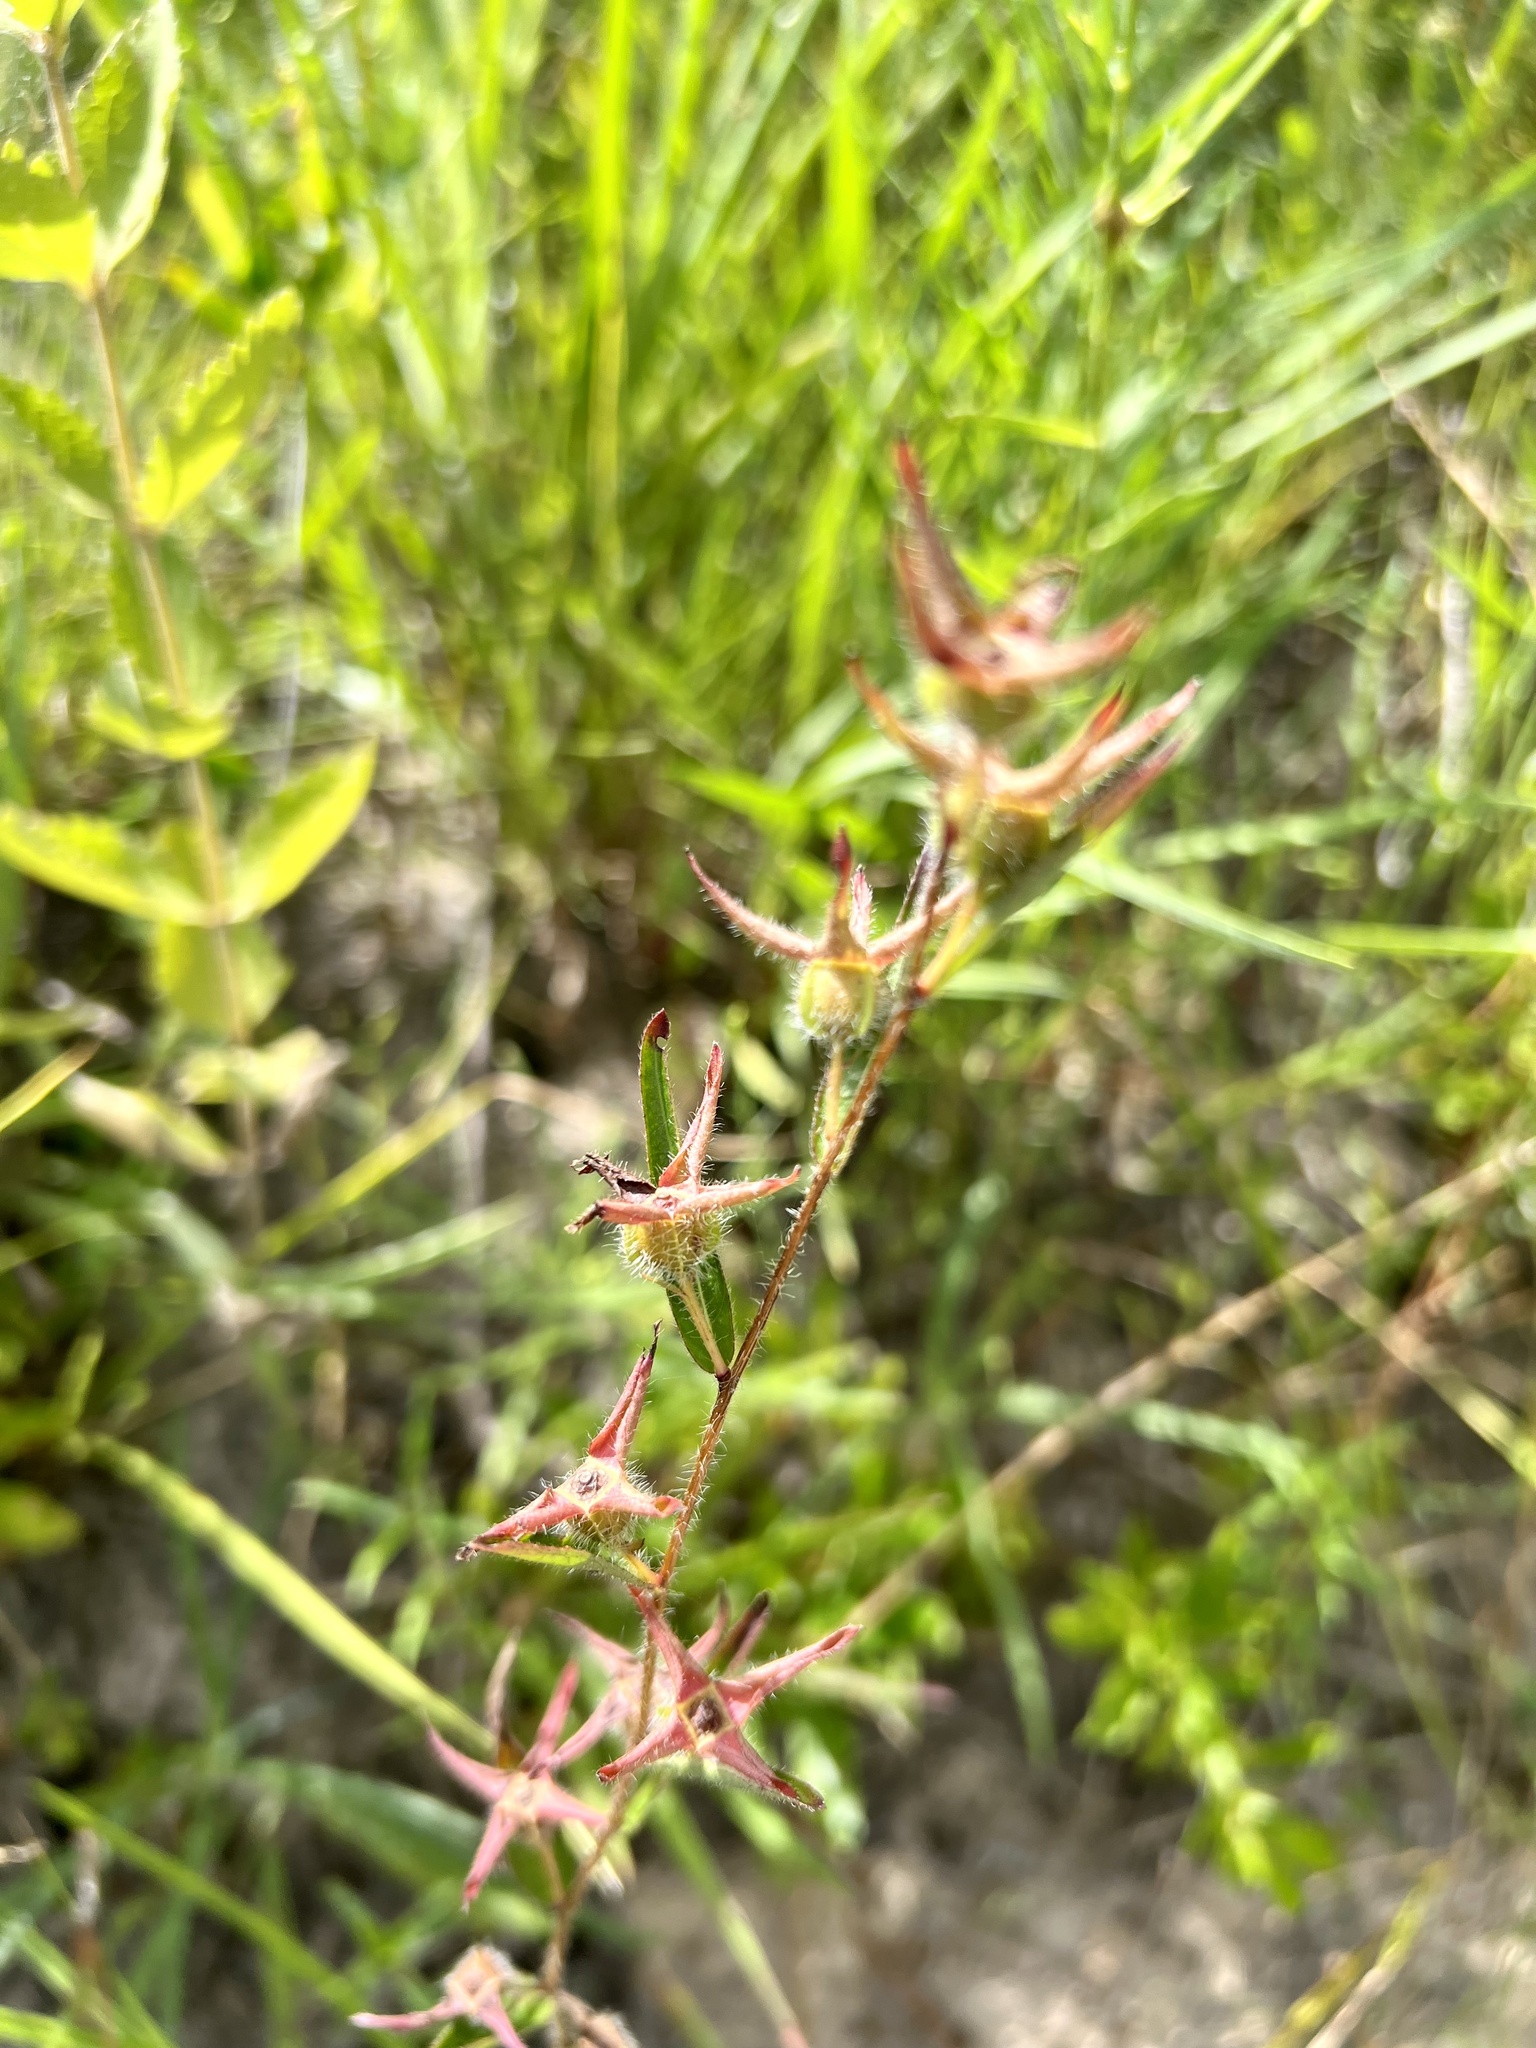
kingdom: Plantae
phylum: Tracheophyta
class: Magnoliopsida
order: Myrtales
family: Onagraceae
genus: Ludwigia
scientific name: Ludwigia hirtella
